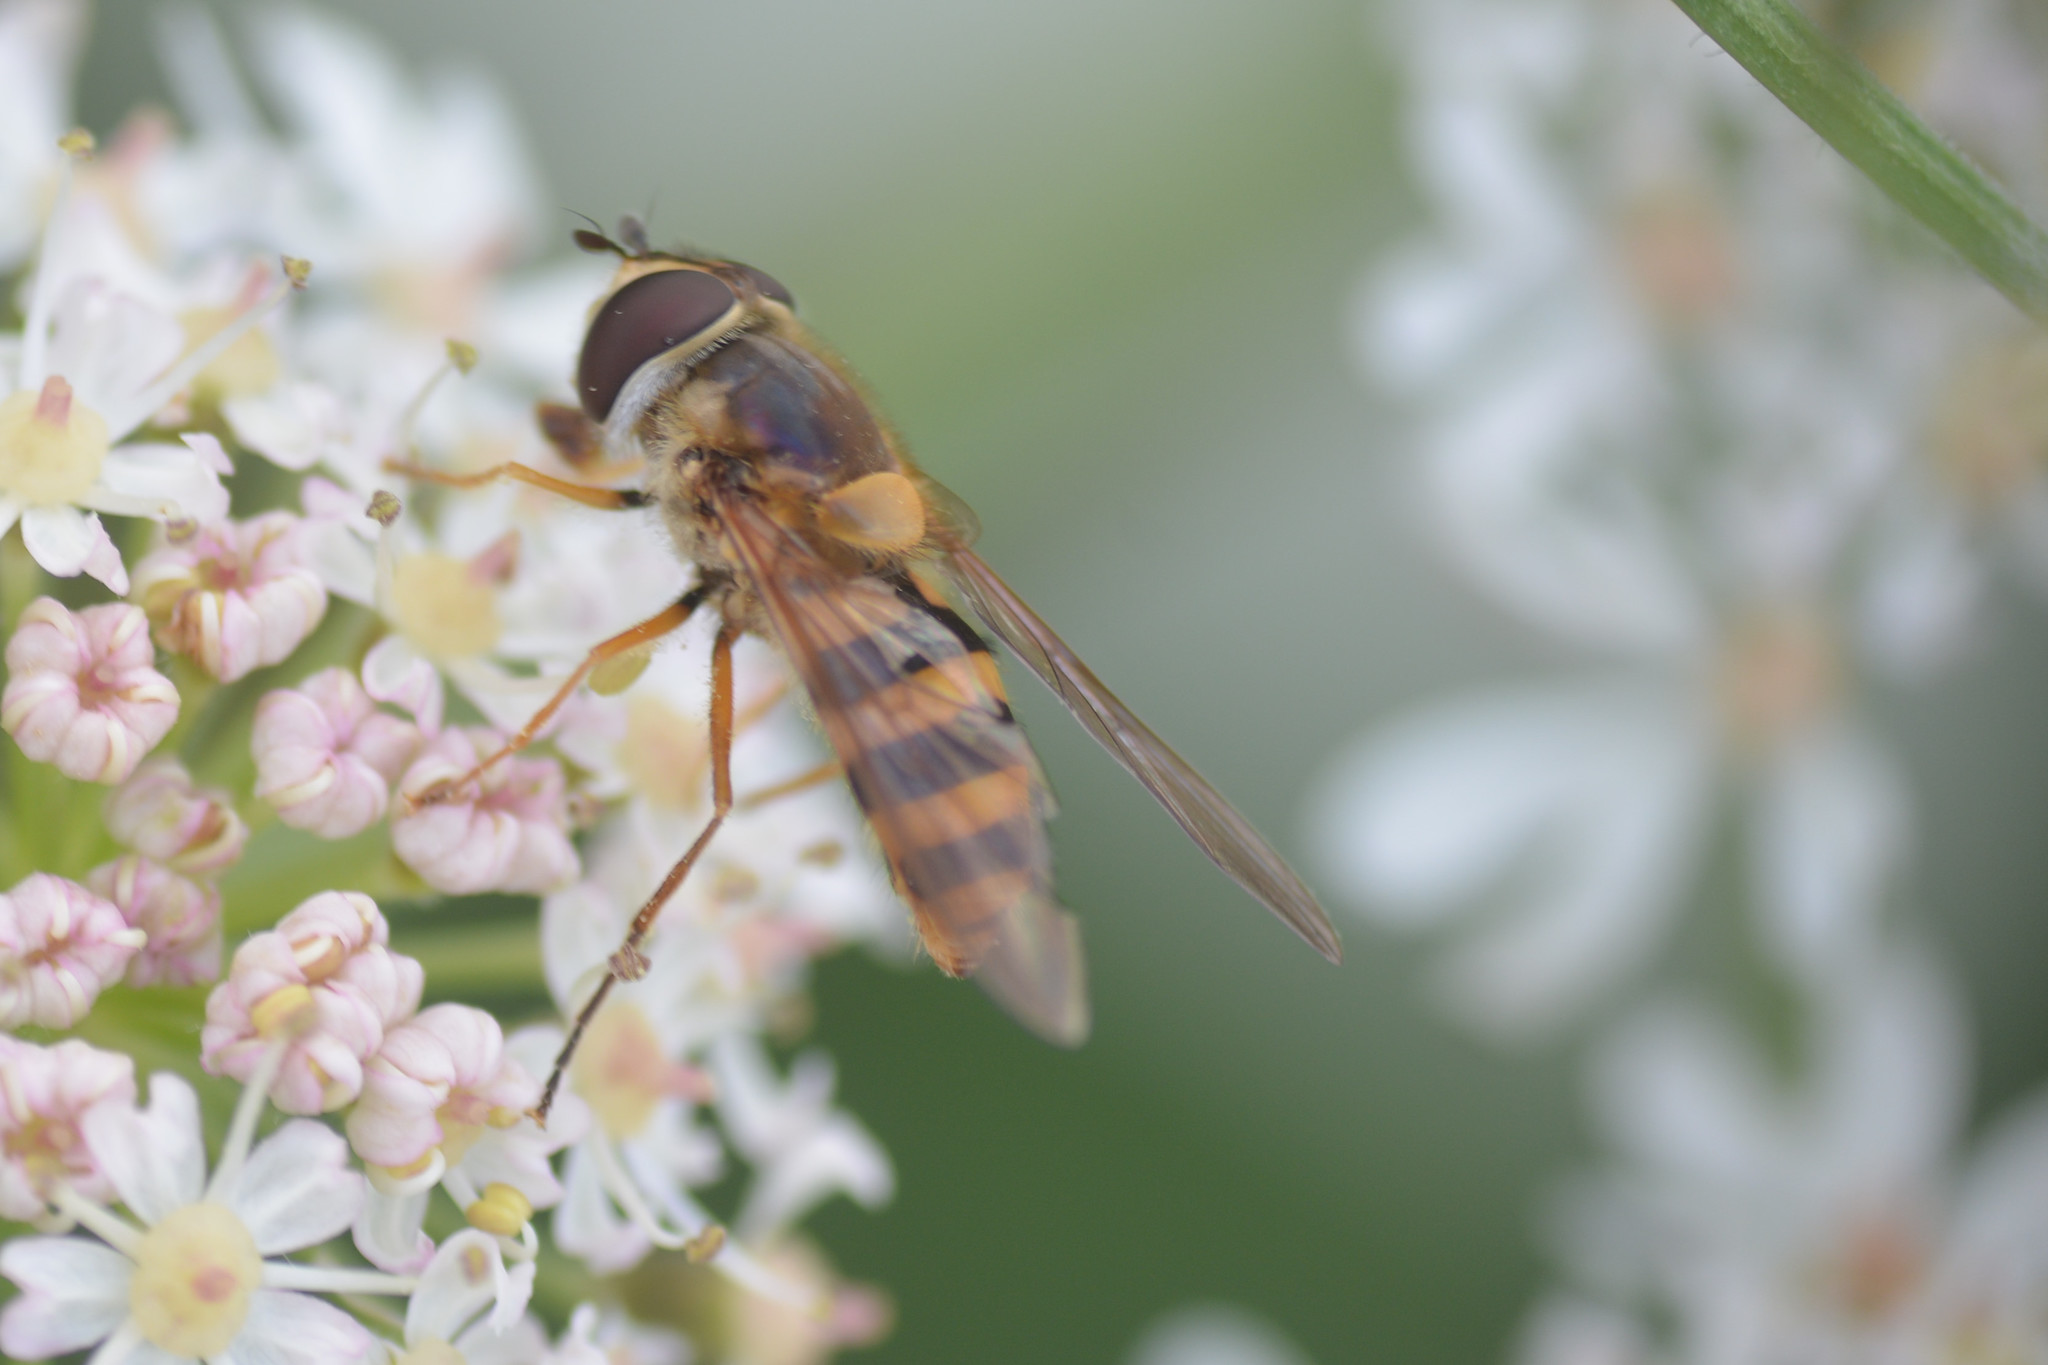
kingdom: Animalia
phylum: Arthropoda
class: Insecta
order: Diptera
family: Syrphidae
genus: Epistrophe
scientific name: Epistrophe grossulariae
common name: Black-horned smoothtail
